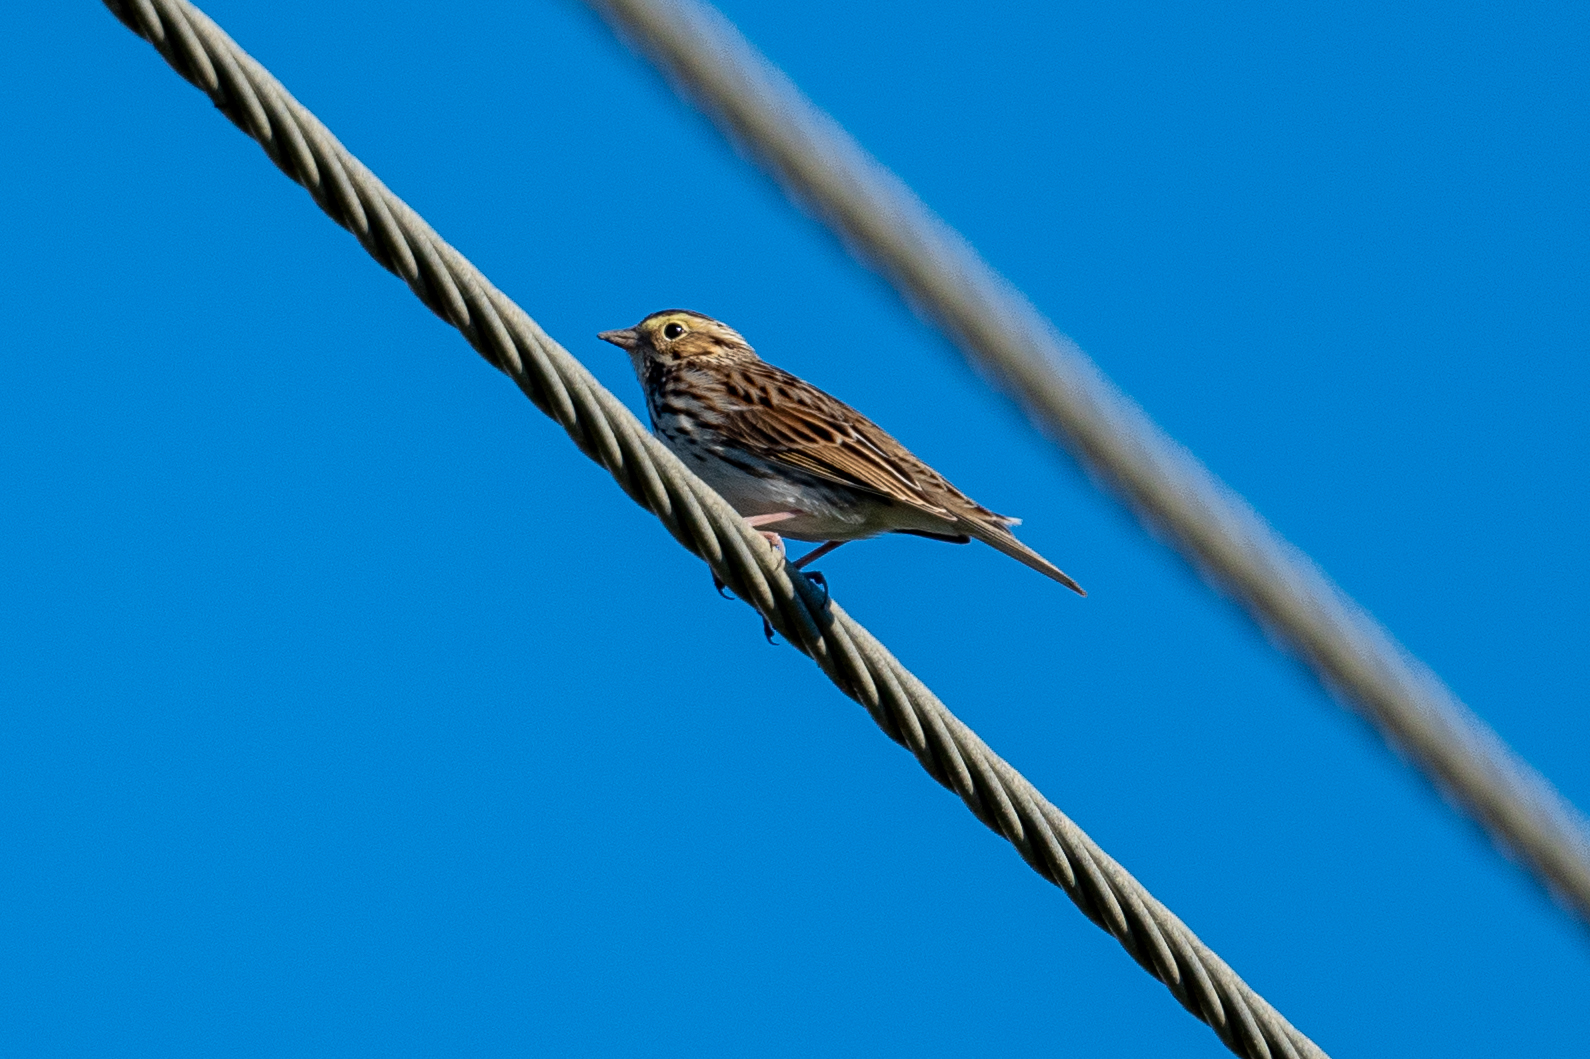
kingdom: Animalia
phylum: Chordata
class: Aves
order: Passeriformes
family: Passerellidae
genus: Passerculus
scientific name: Passerculus sandwichensis
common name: Savannah sparrow
